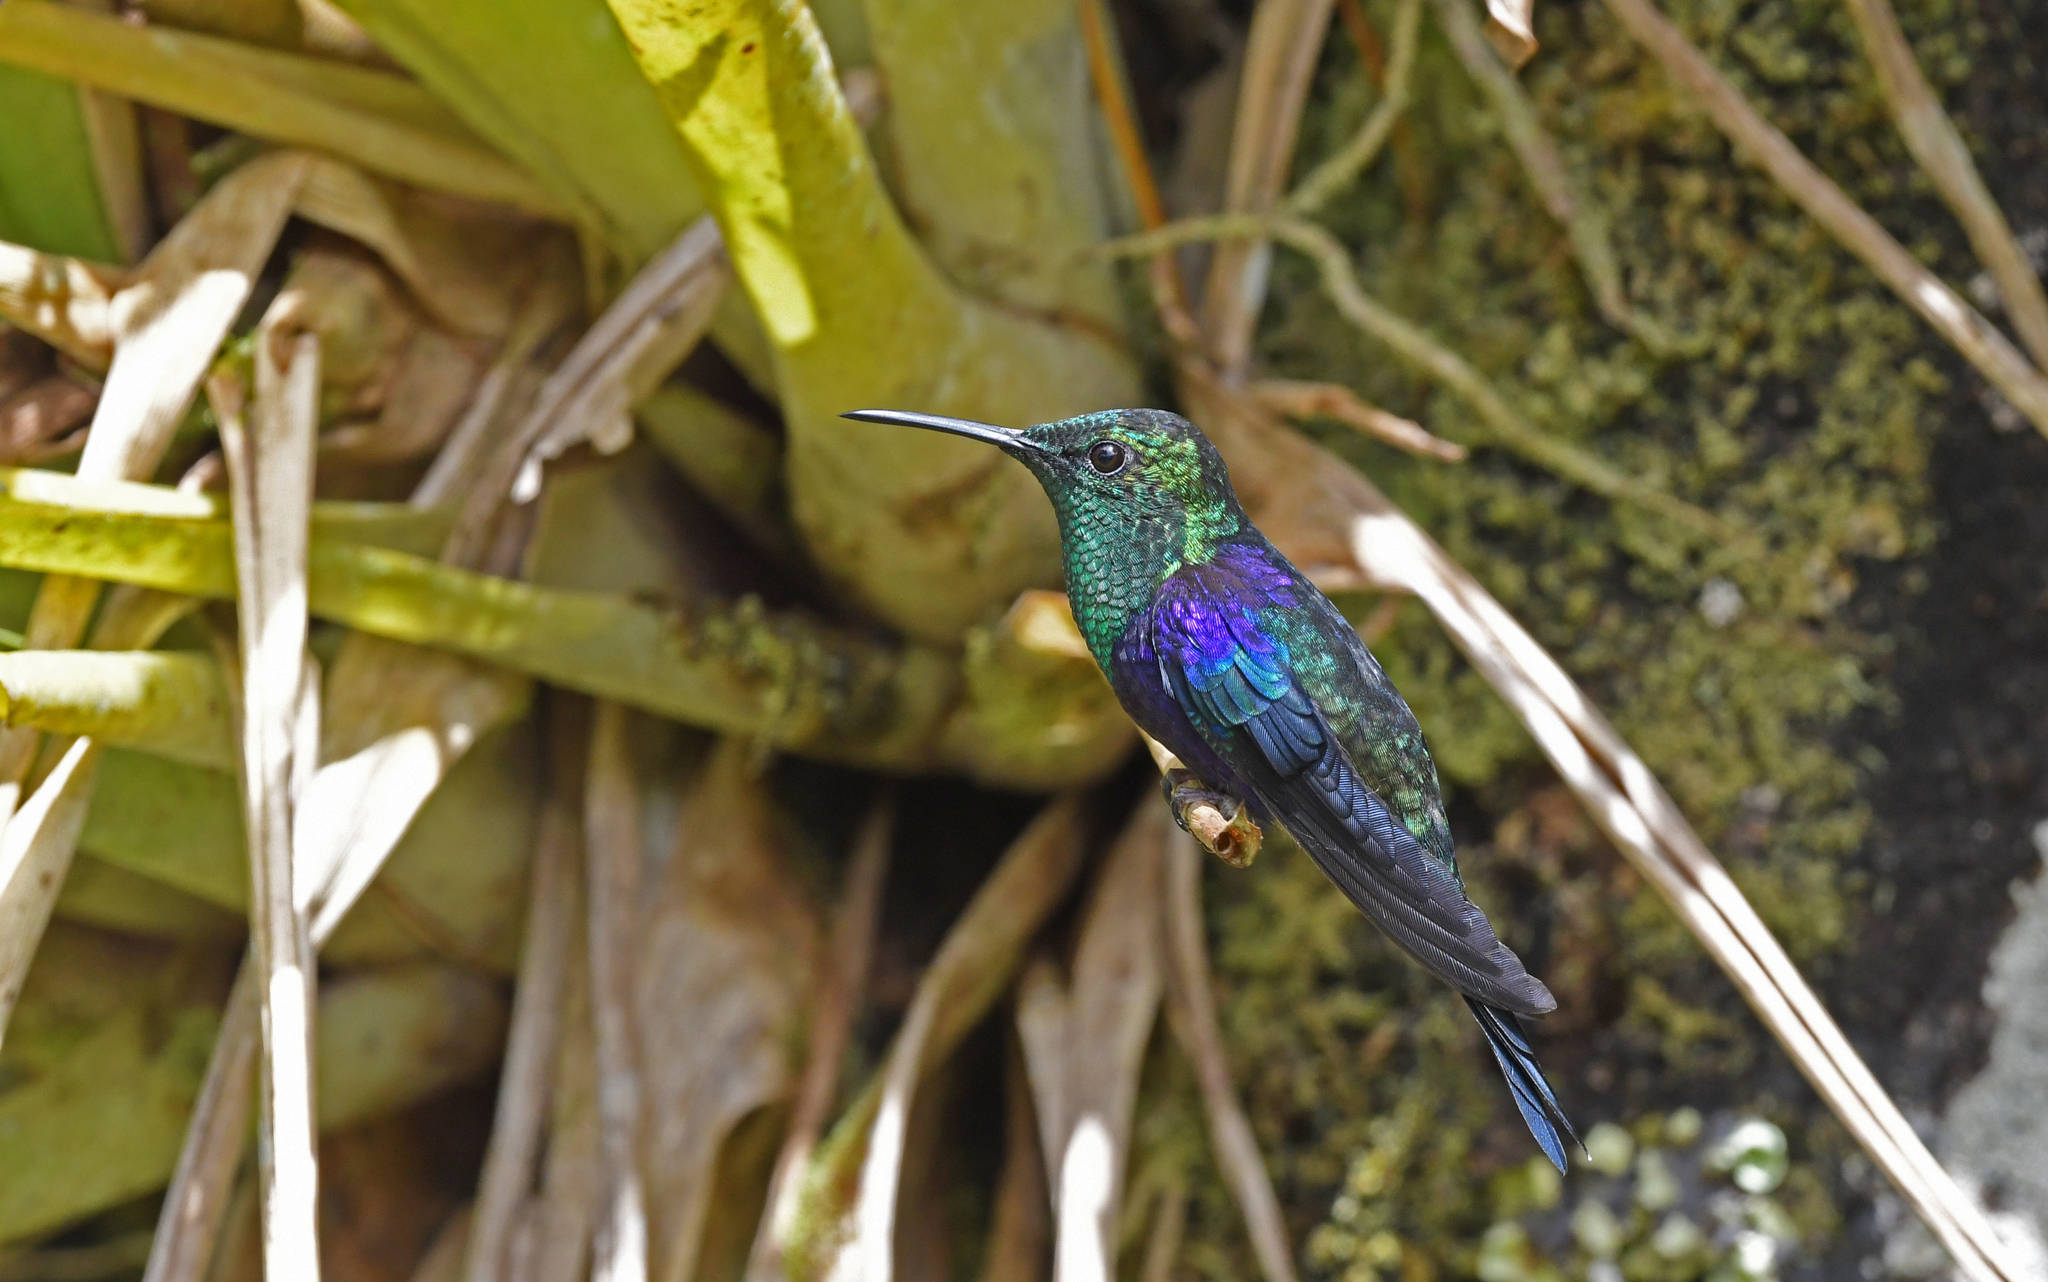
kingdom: Animalia
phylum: Chordata
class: Aves
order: Apodiformes
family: Trochilidae
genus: Thalurania
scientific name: Thalurania colombica
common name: Crowned woodnymph
